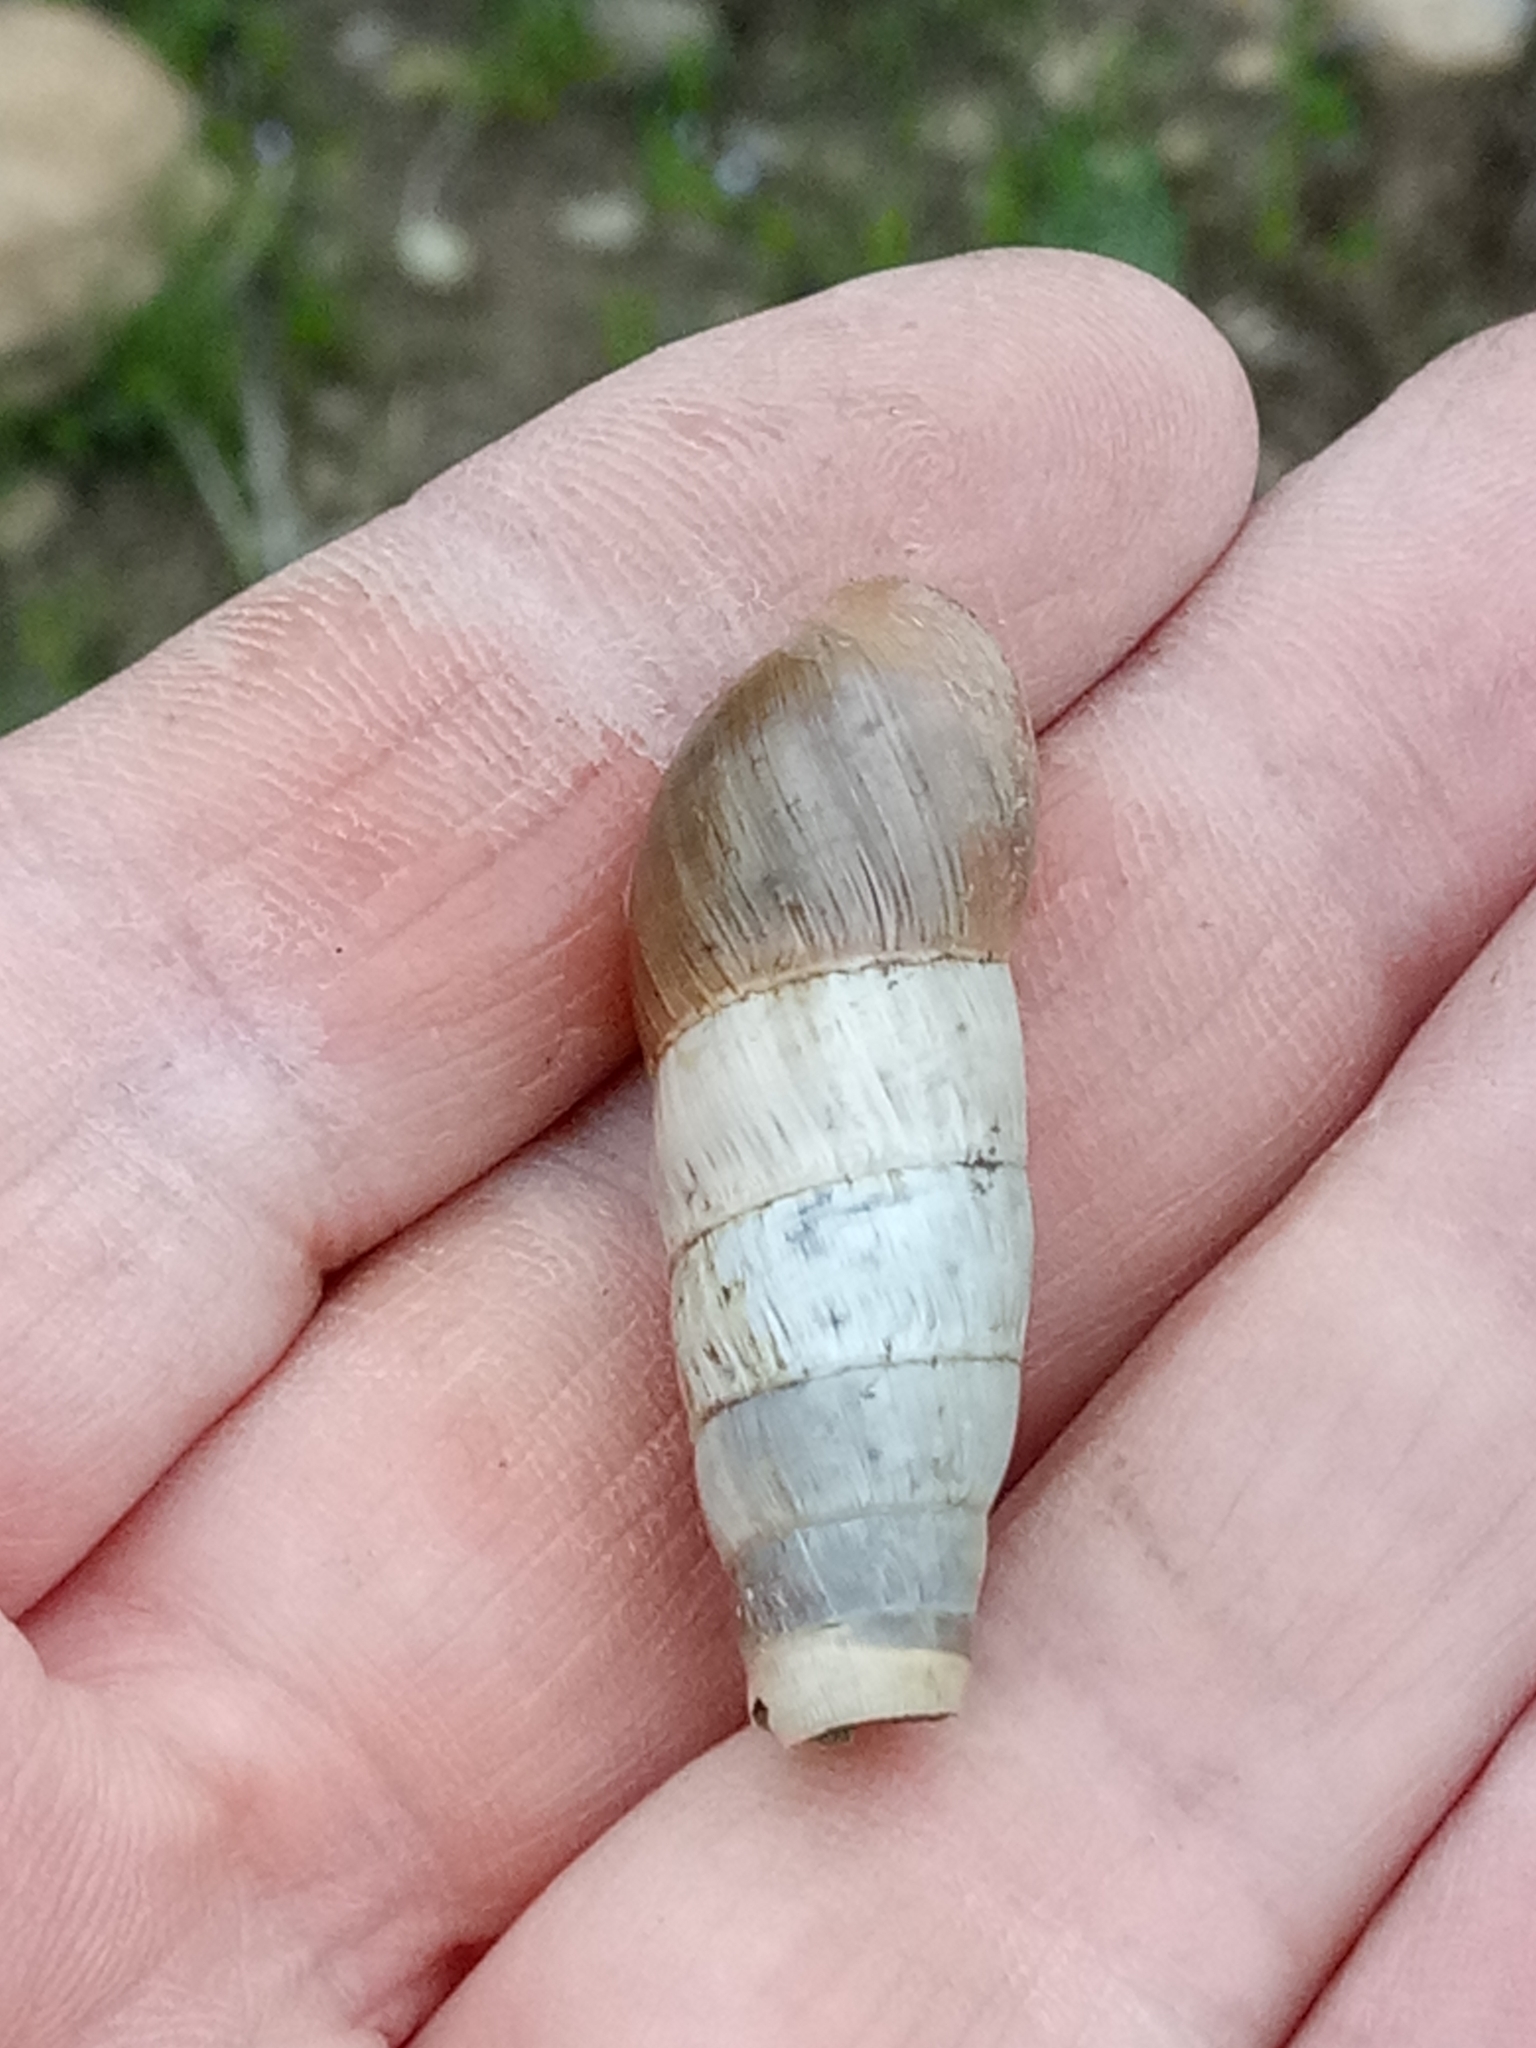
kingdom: Animalia
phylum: Mollusca
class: Gastropoda
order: Stylommatophora
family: Achatinidae
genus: Rumina
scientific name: Rumina decollata
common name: Decollate snail
